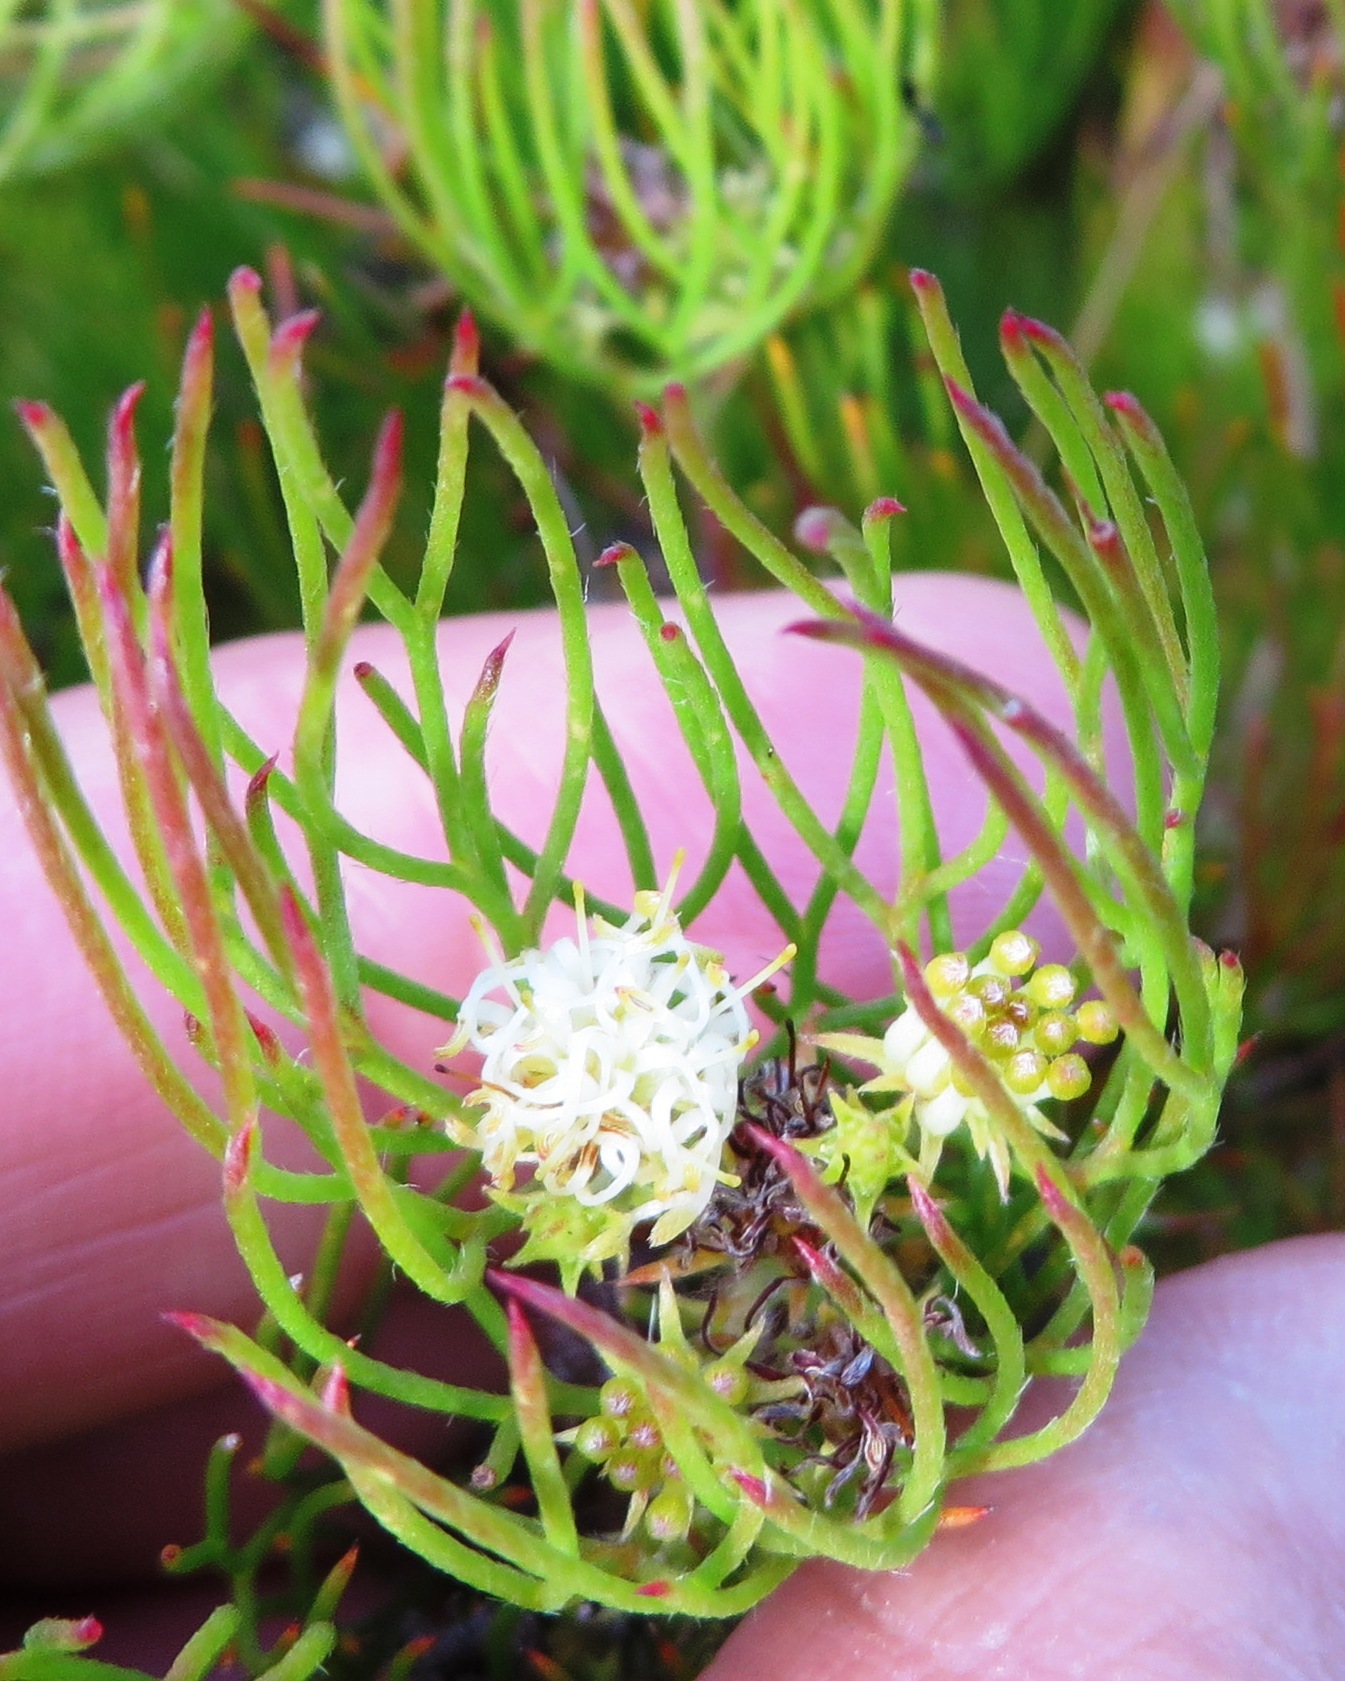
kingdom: Plantae
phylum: Tracheophyta
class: Magnoliopsida
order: Proteales
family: Proteaceae
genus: Serruria
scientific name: Serruria inconspicua
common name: Cryptic spiderhead
